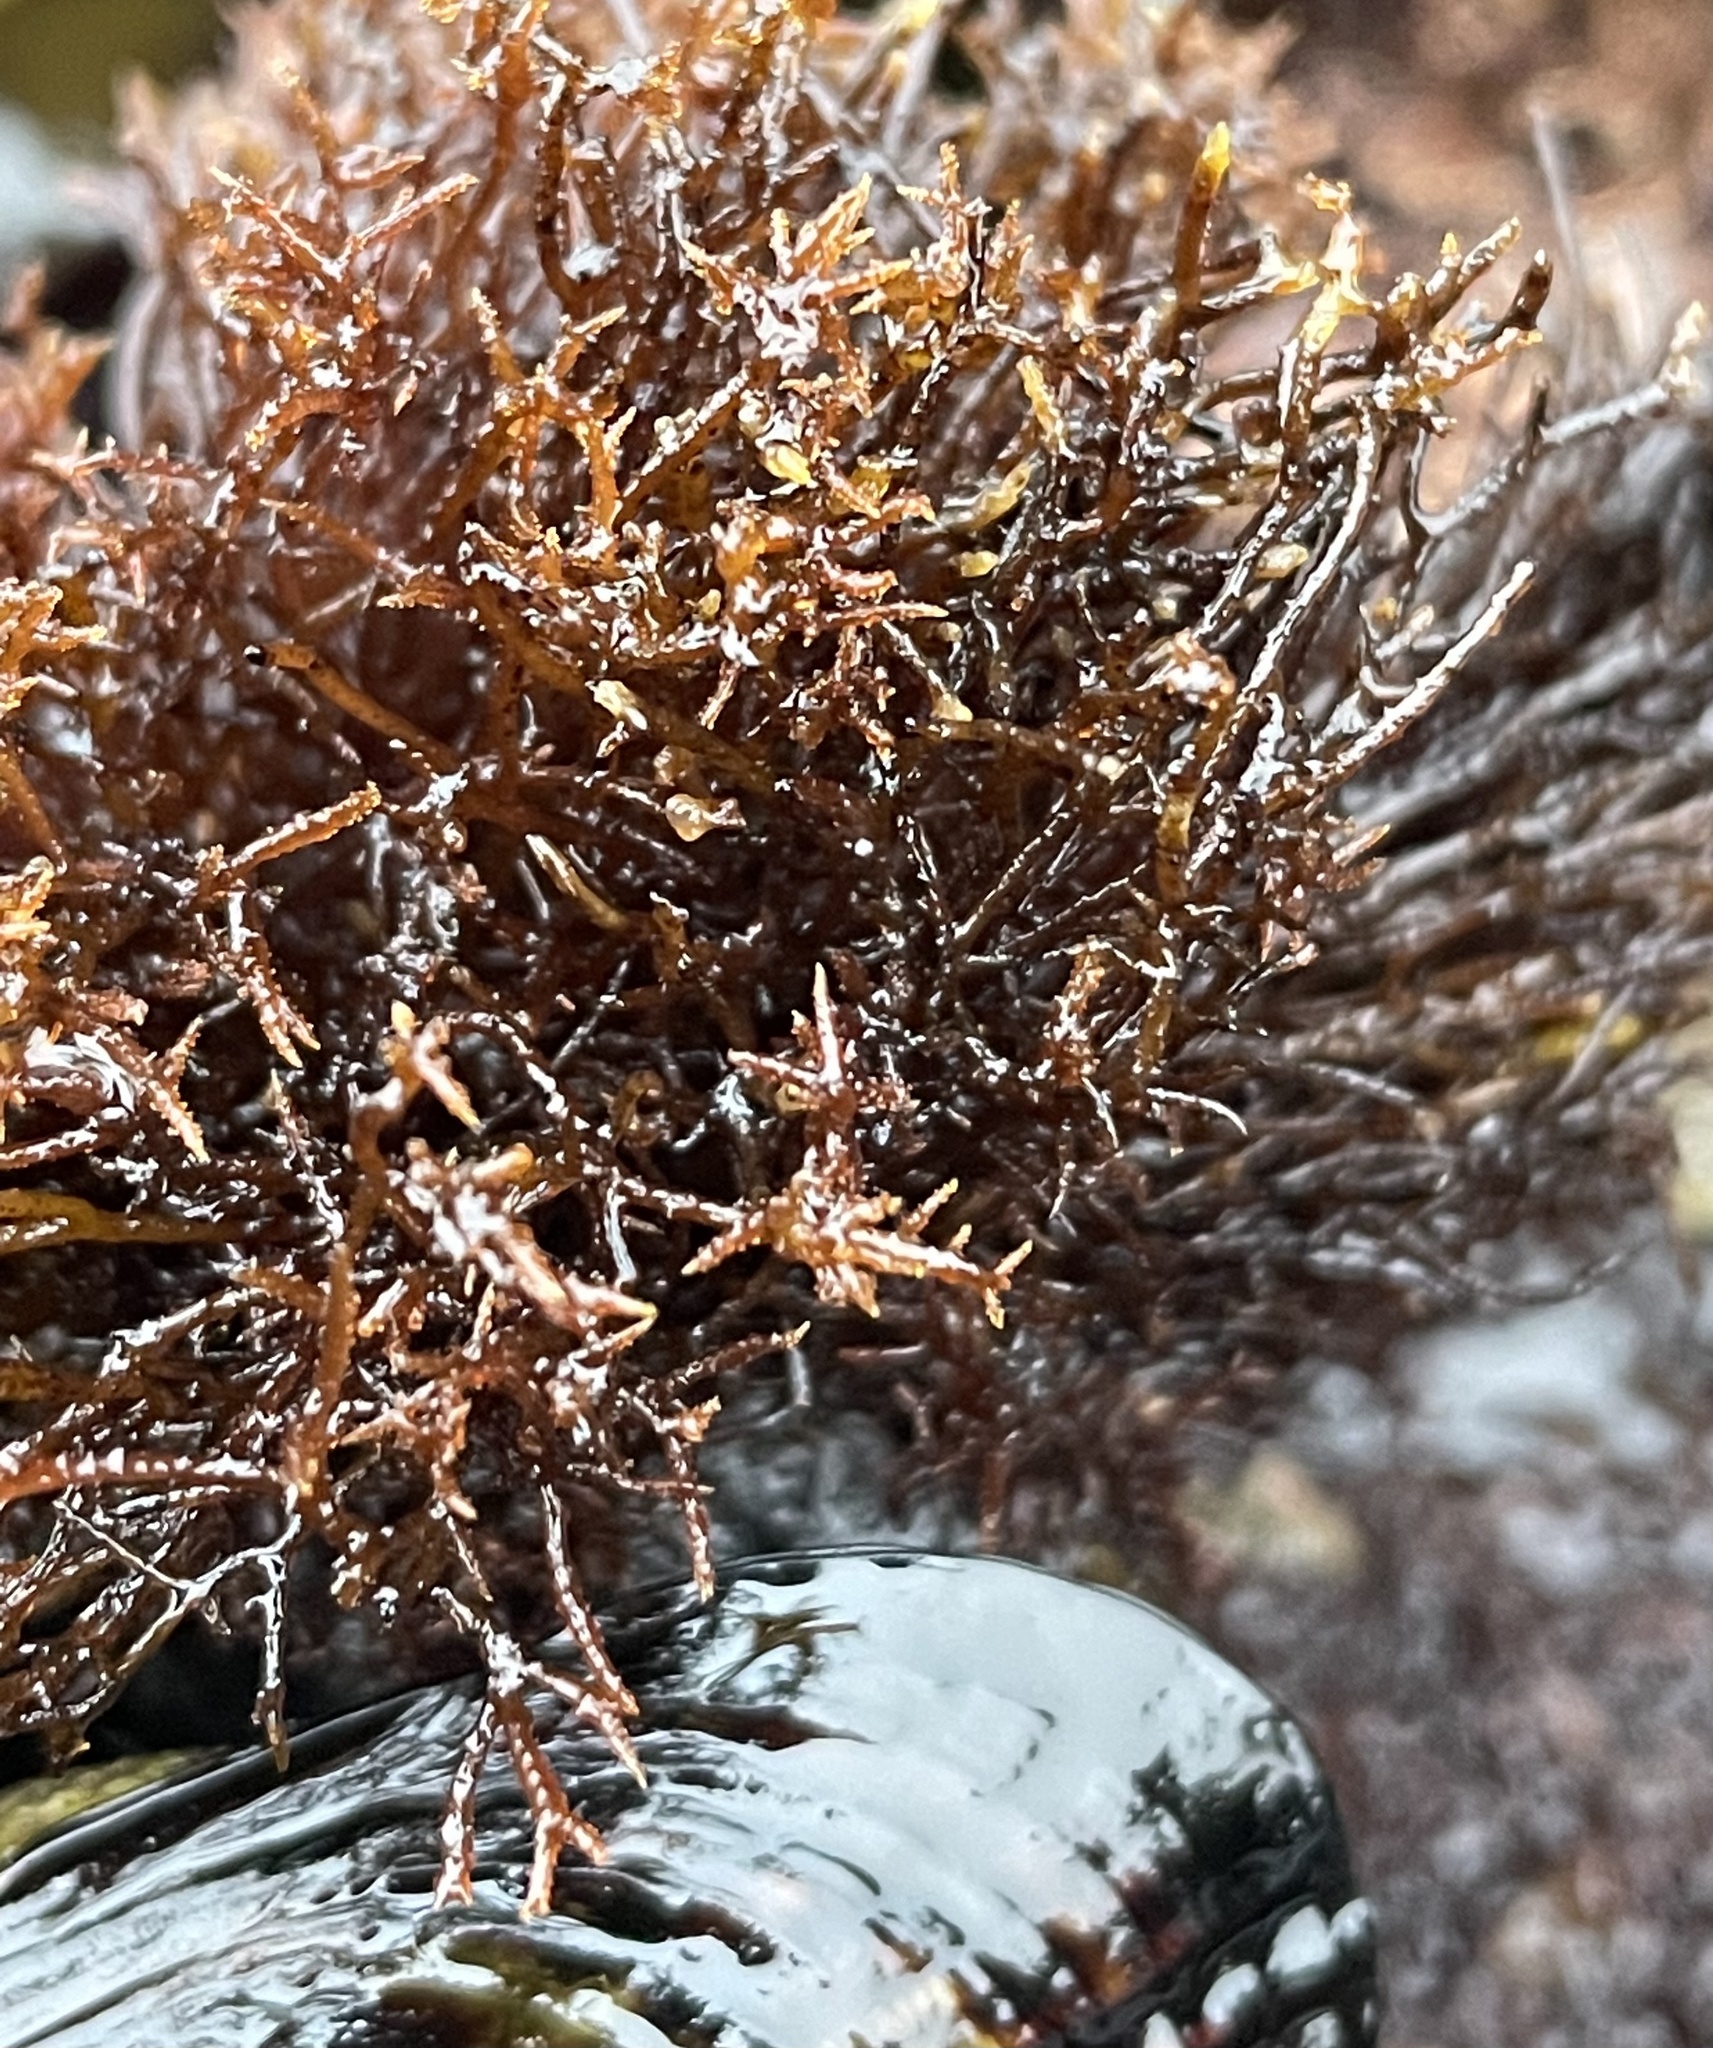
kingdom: Plantae
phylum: Rhodophyta
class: Florideophyceae
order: Gigartinales
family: Endocladiaceae
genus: Endocladia
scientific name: Endocladia muricata
